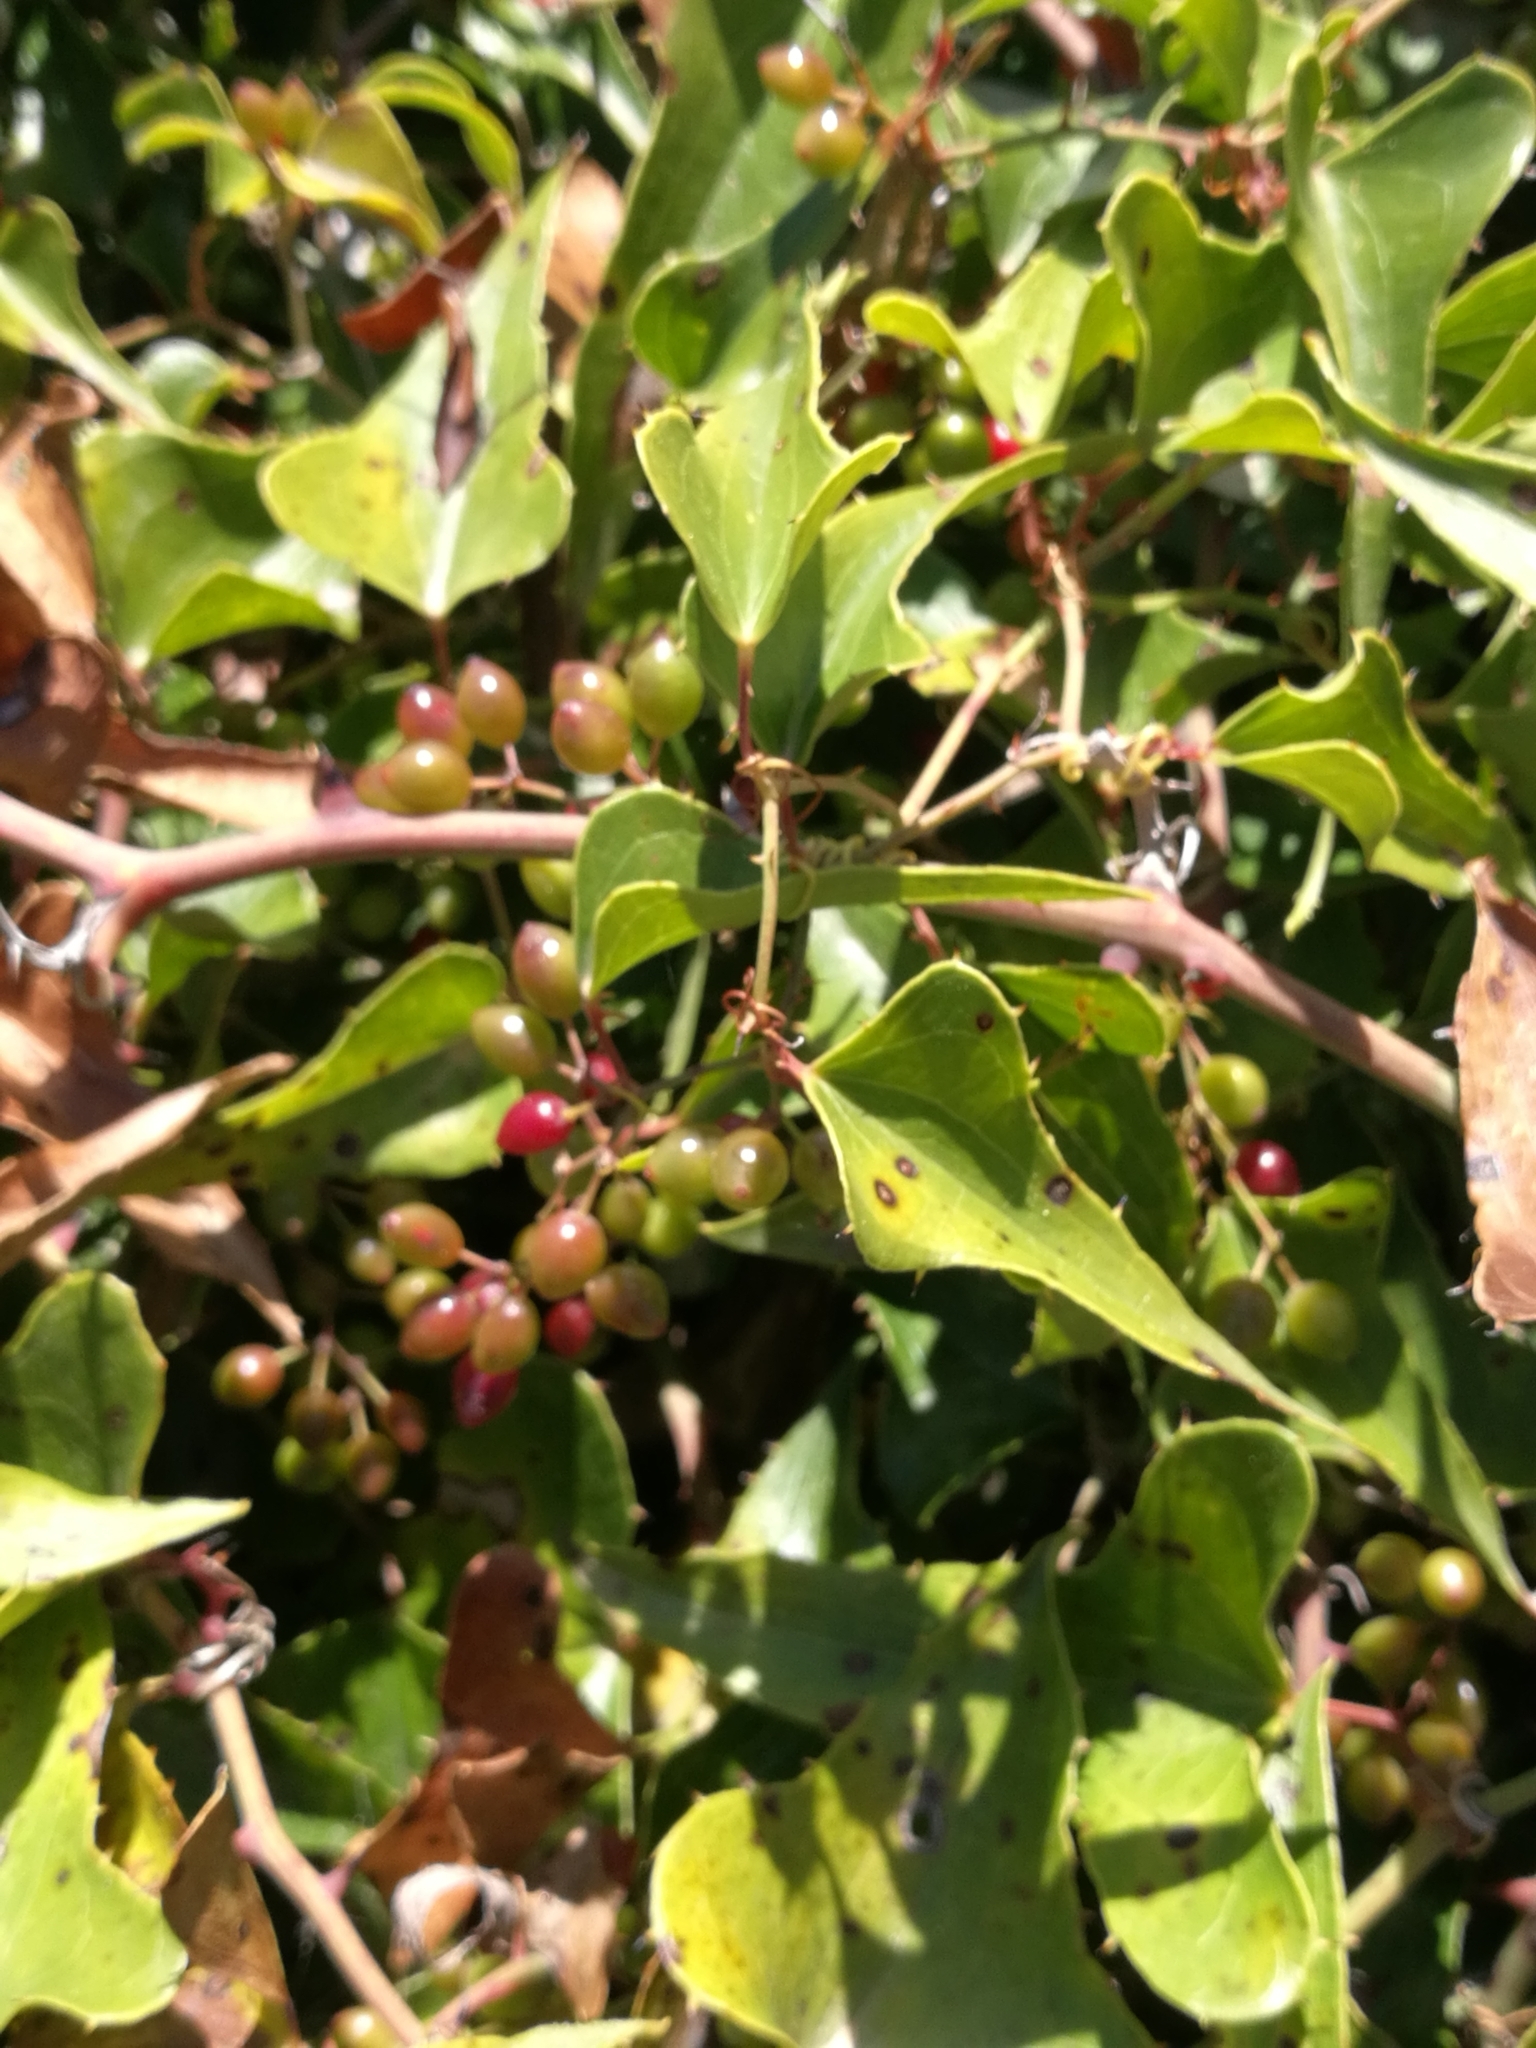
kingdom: Plantae
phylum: Tracheophyta
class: Liliopsida
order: Liliales
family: Smilacaceae
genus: Smilax
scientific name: Smilax aspera
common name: Common smilax
